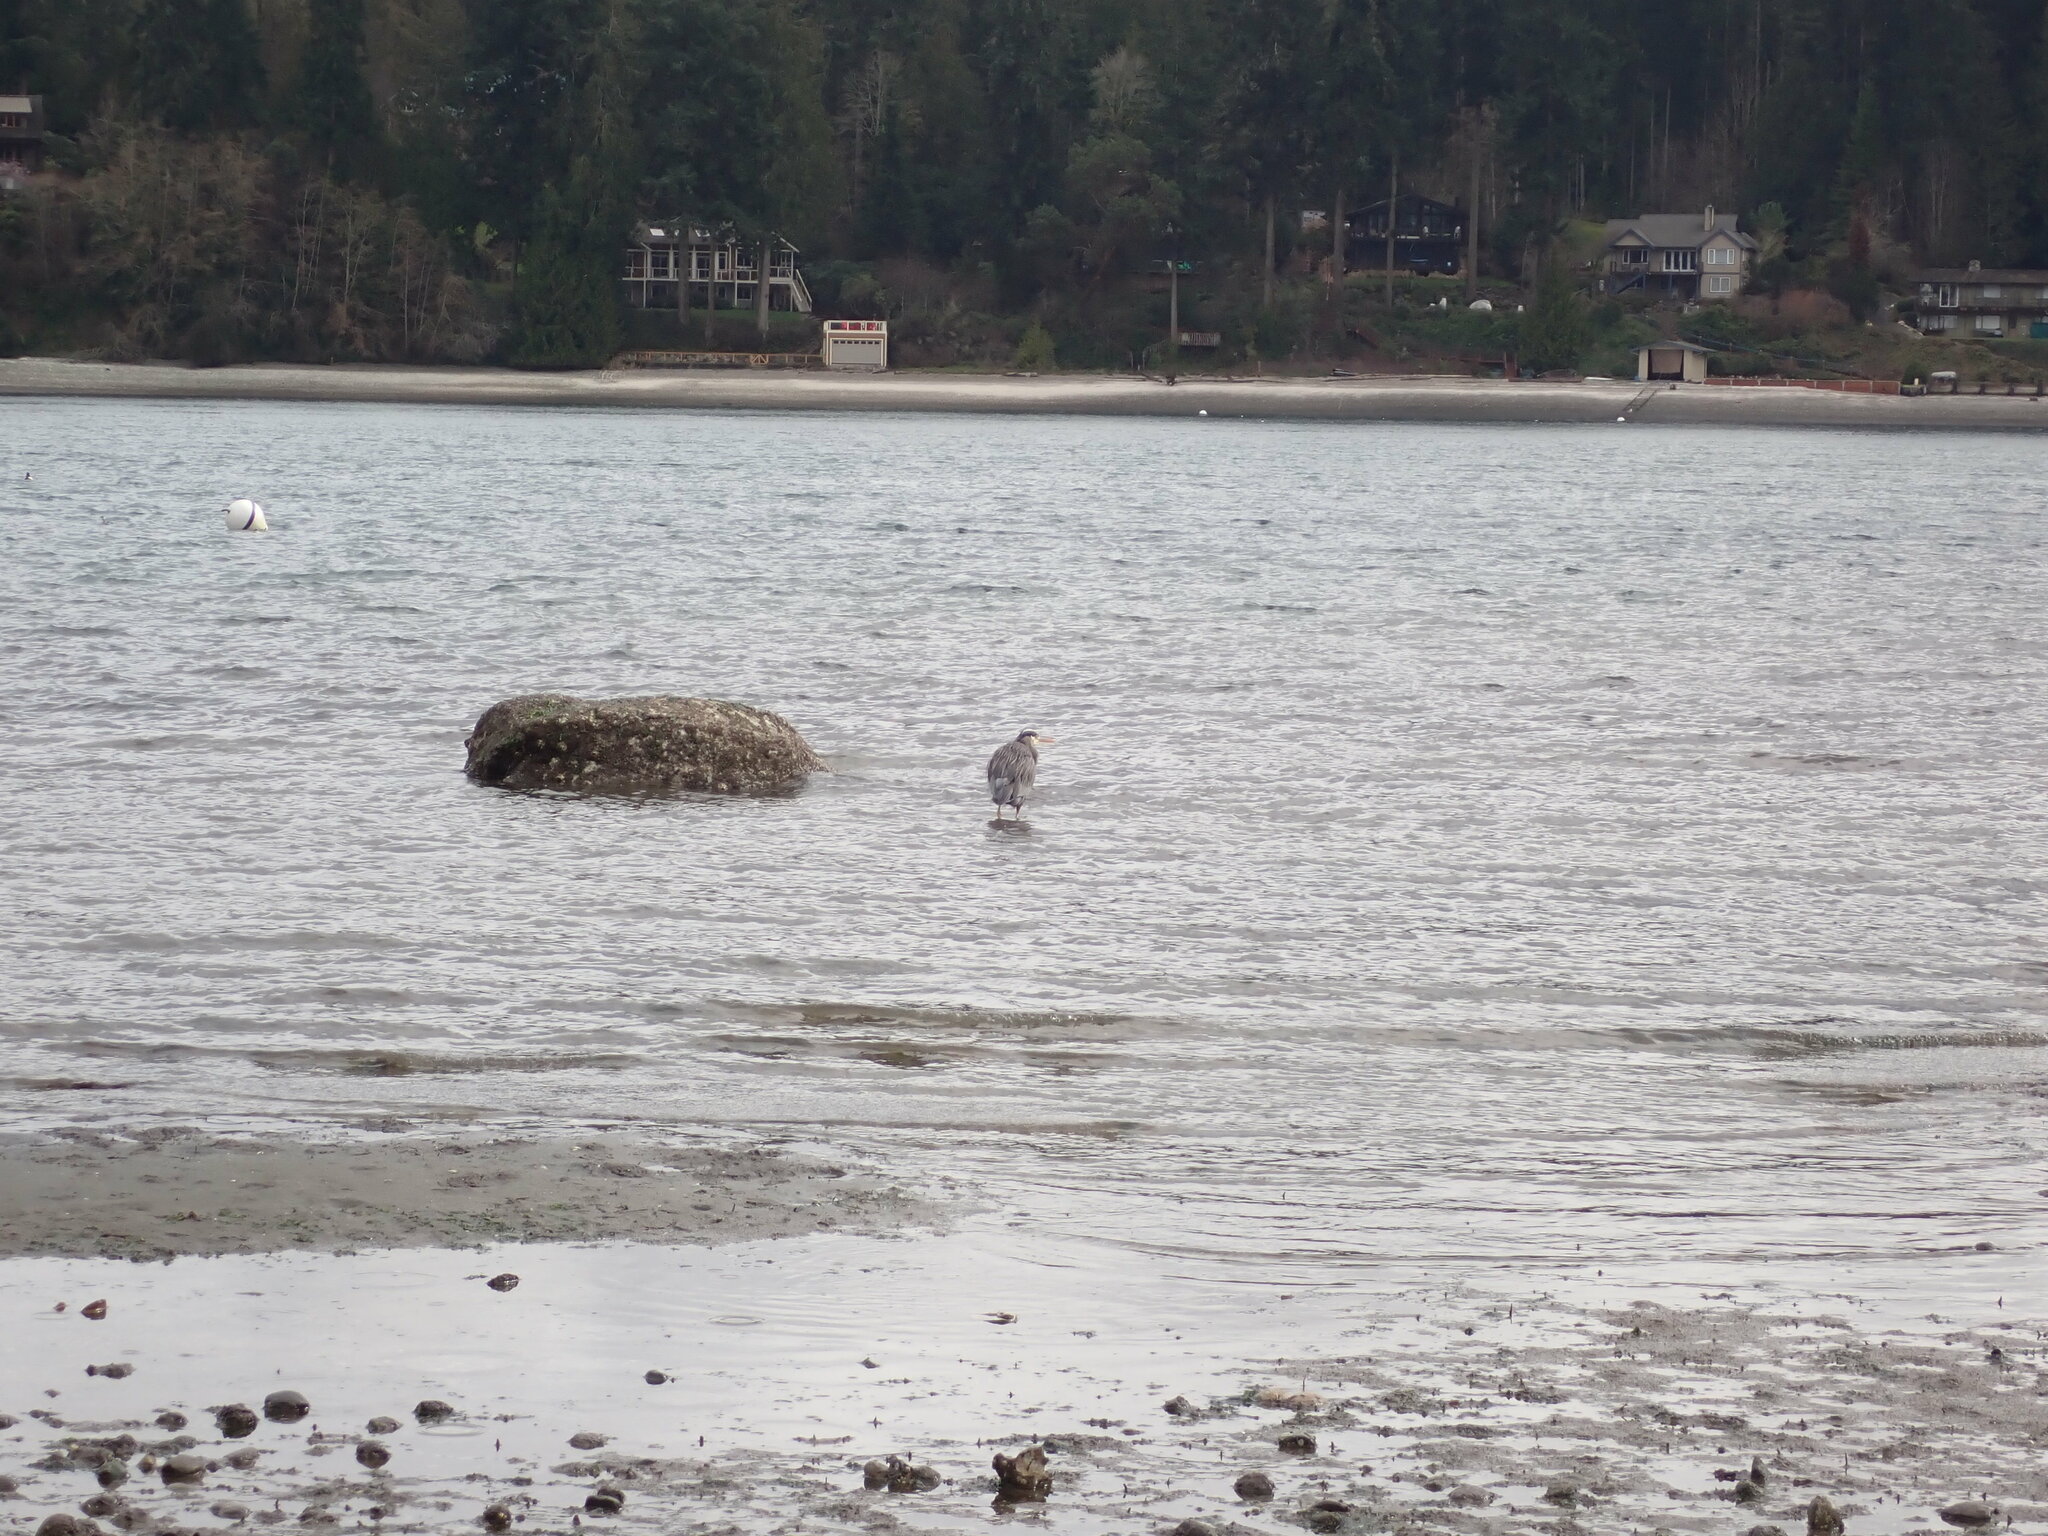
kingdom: Animalia
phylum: Chordata
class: Aves
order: Pelecaniformes
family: Ardeidae
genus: Ardea
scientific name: Ardea herodias
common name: Great blue heron
